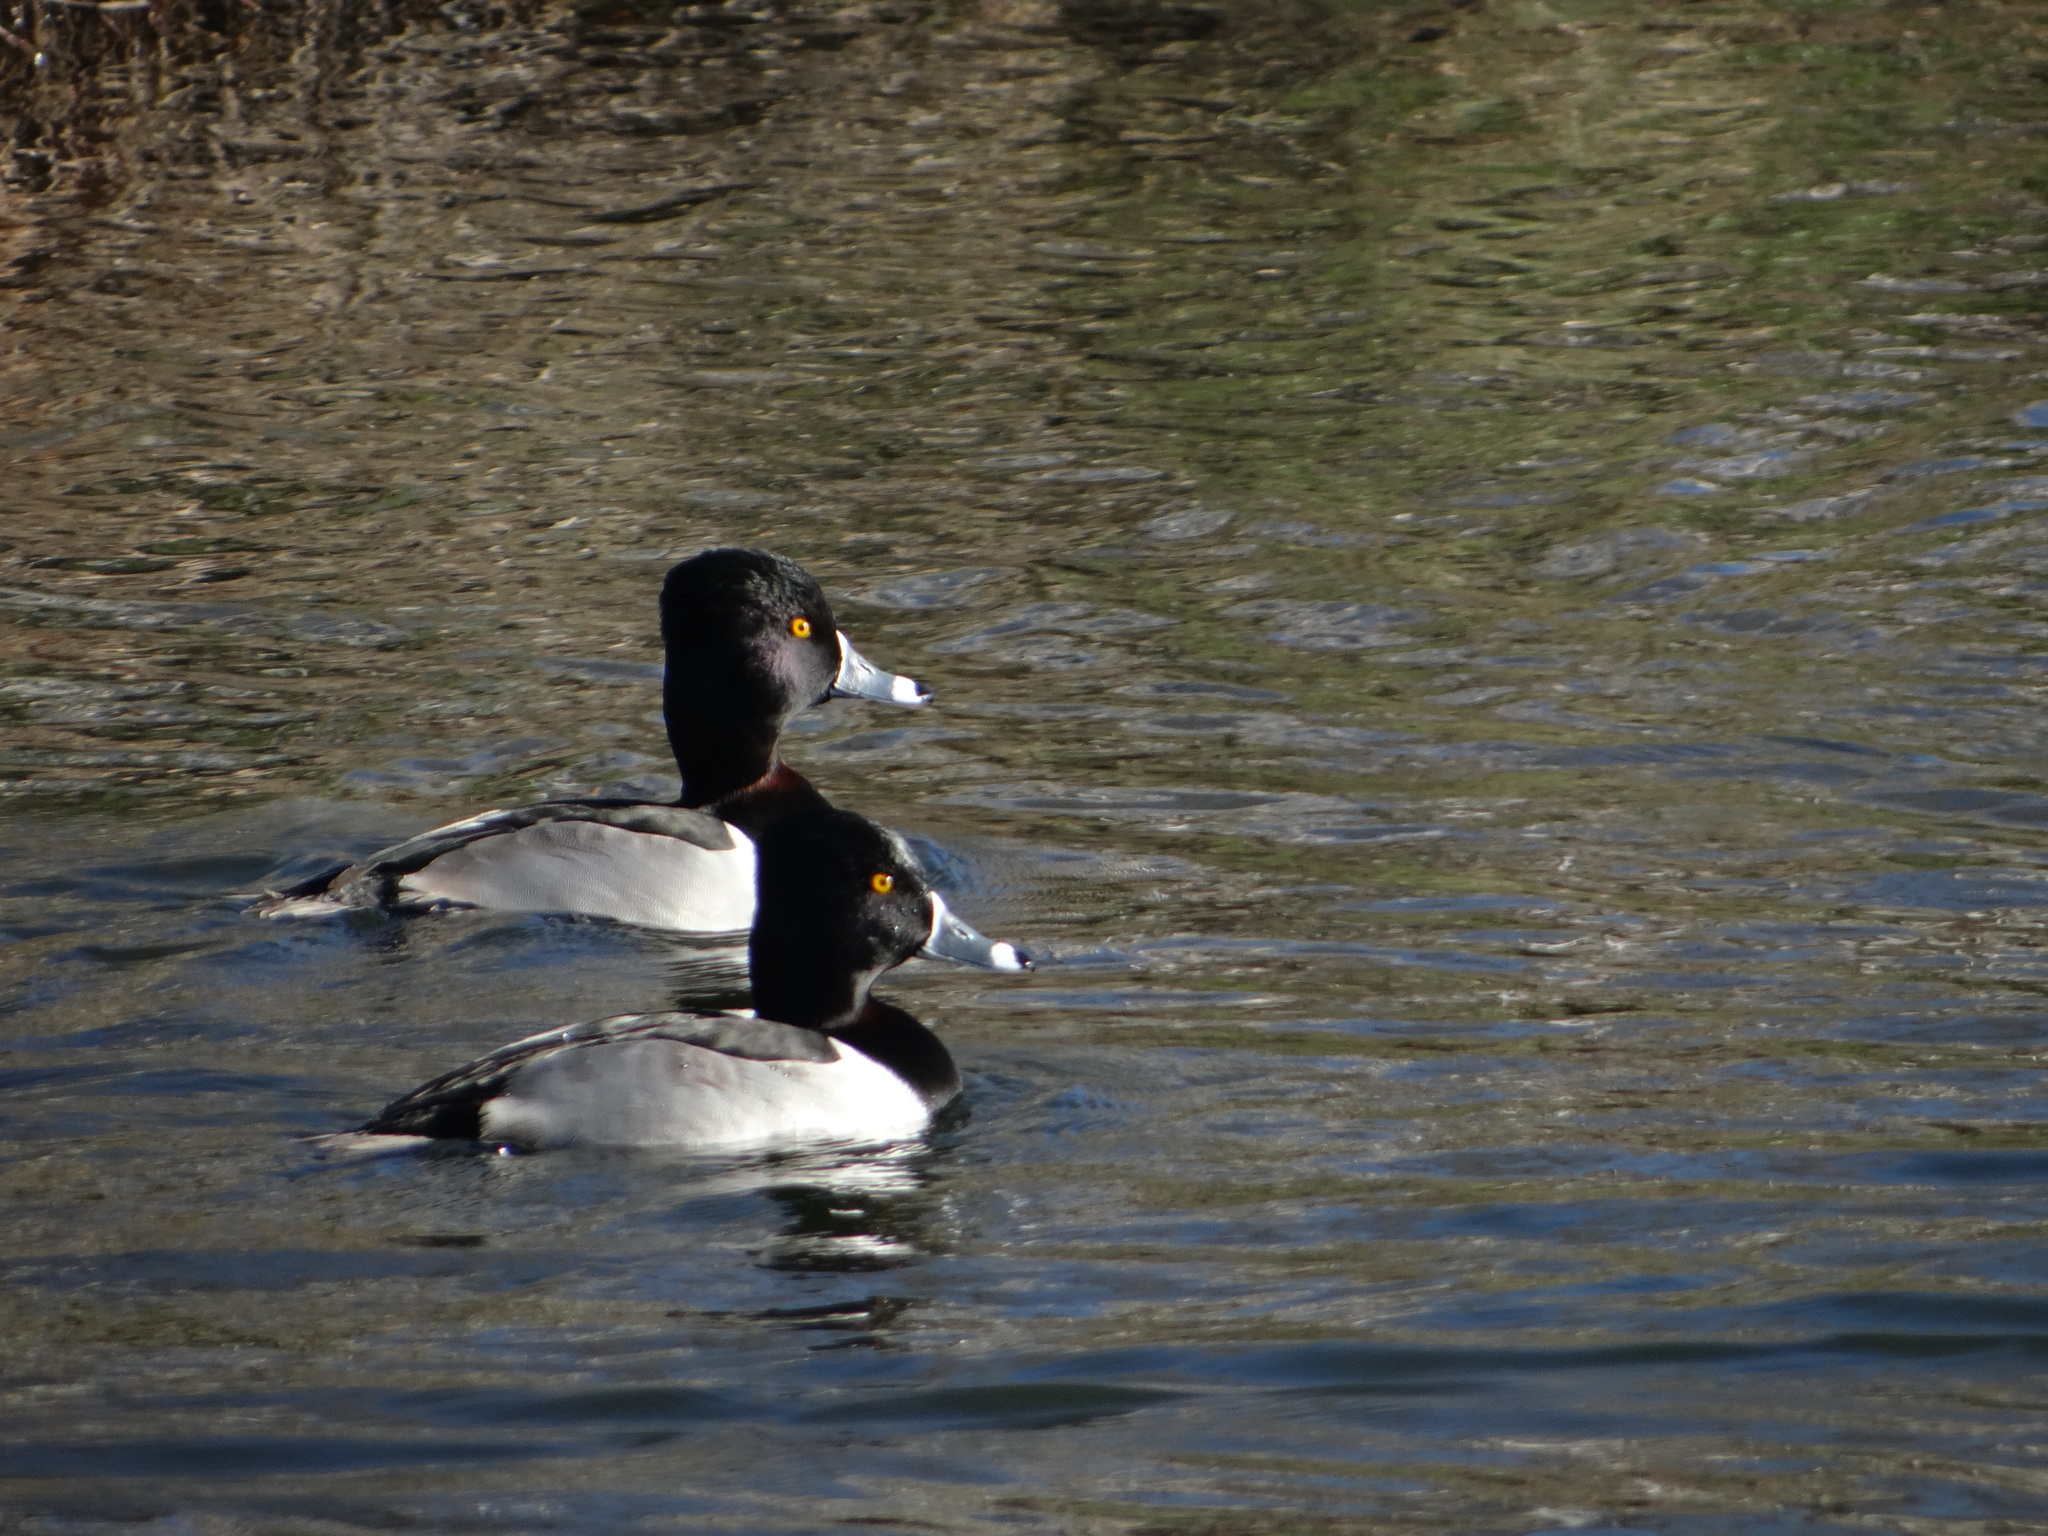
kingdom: Animalia
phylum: Chordata
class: Aves
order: Anseriformes
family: Anatidae
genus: Aythya
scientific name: Aythya collaris
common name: Ring-necked duck
